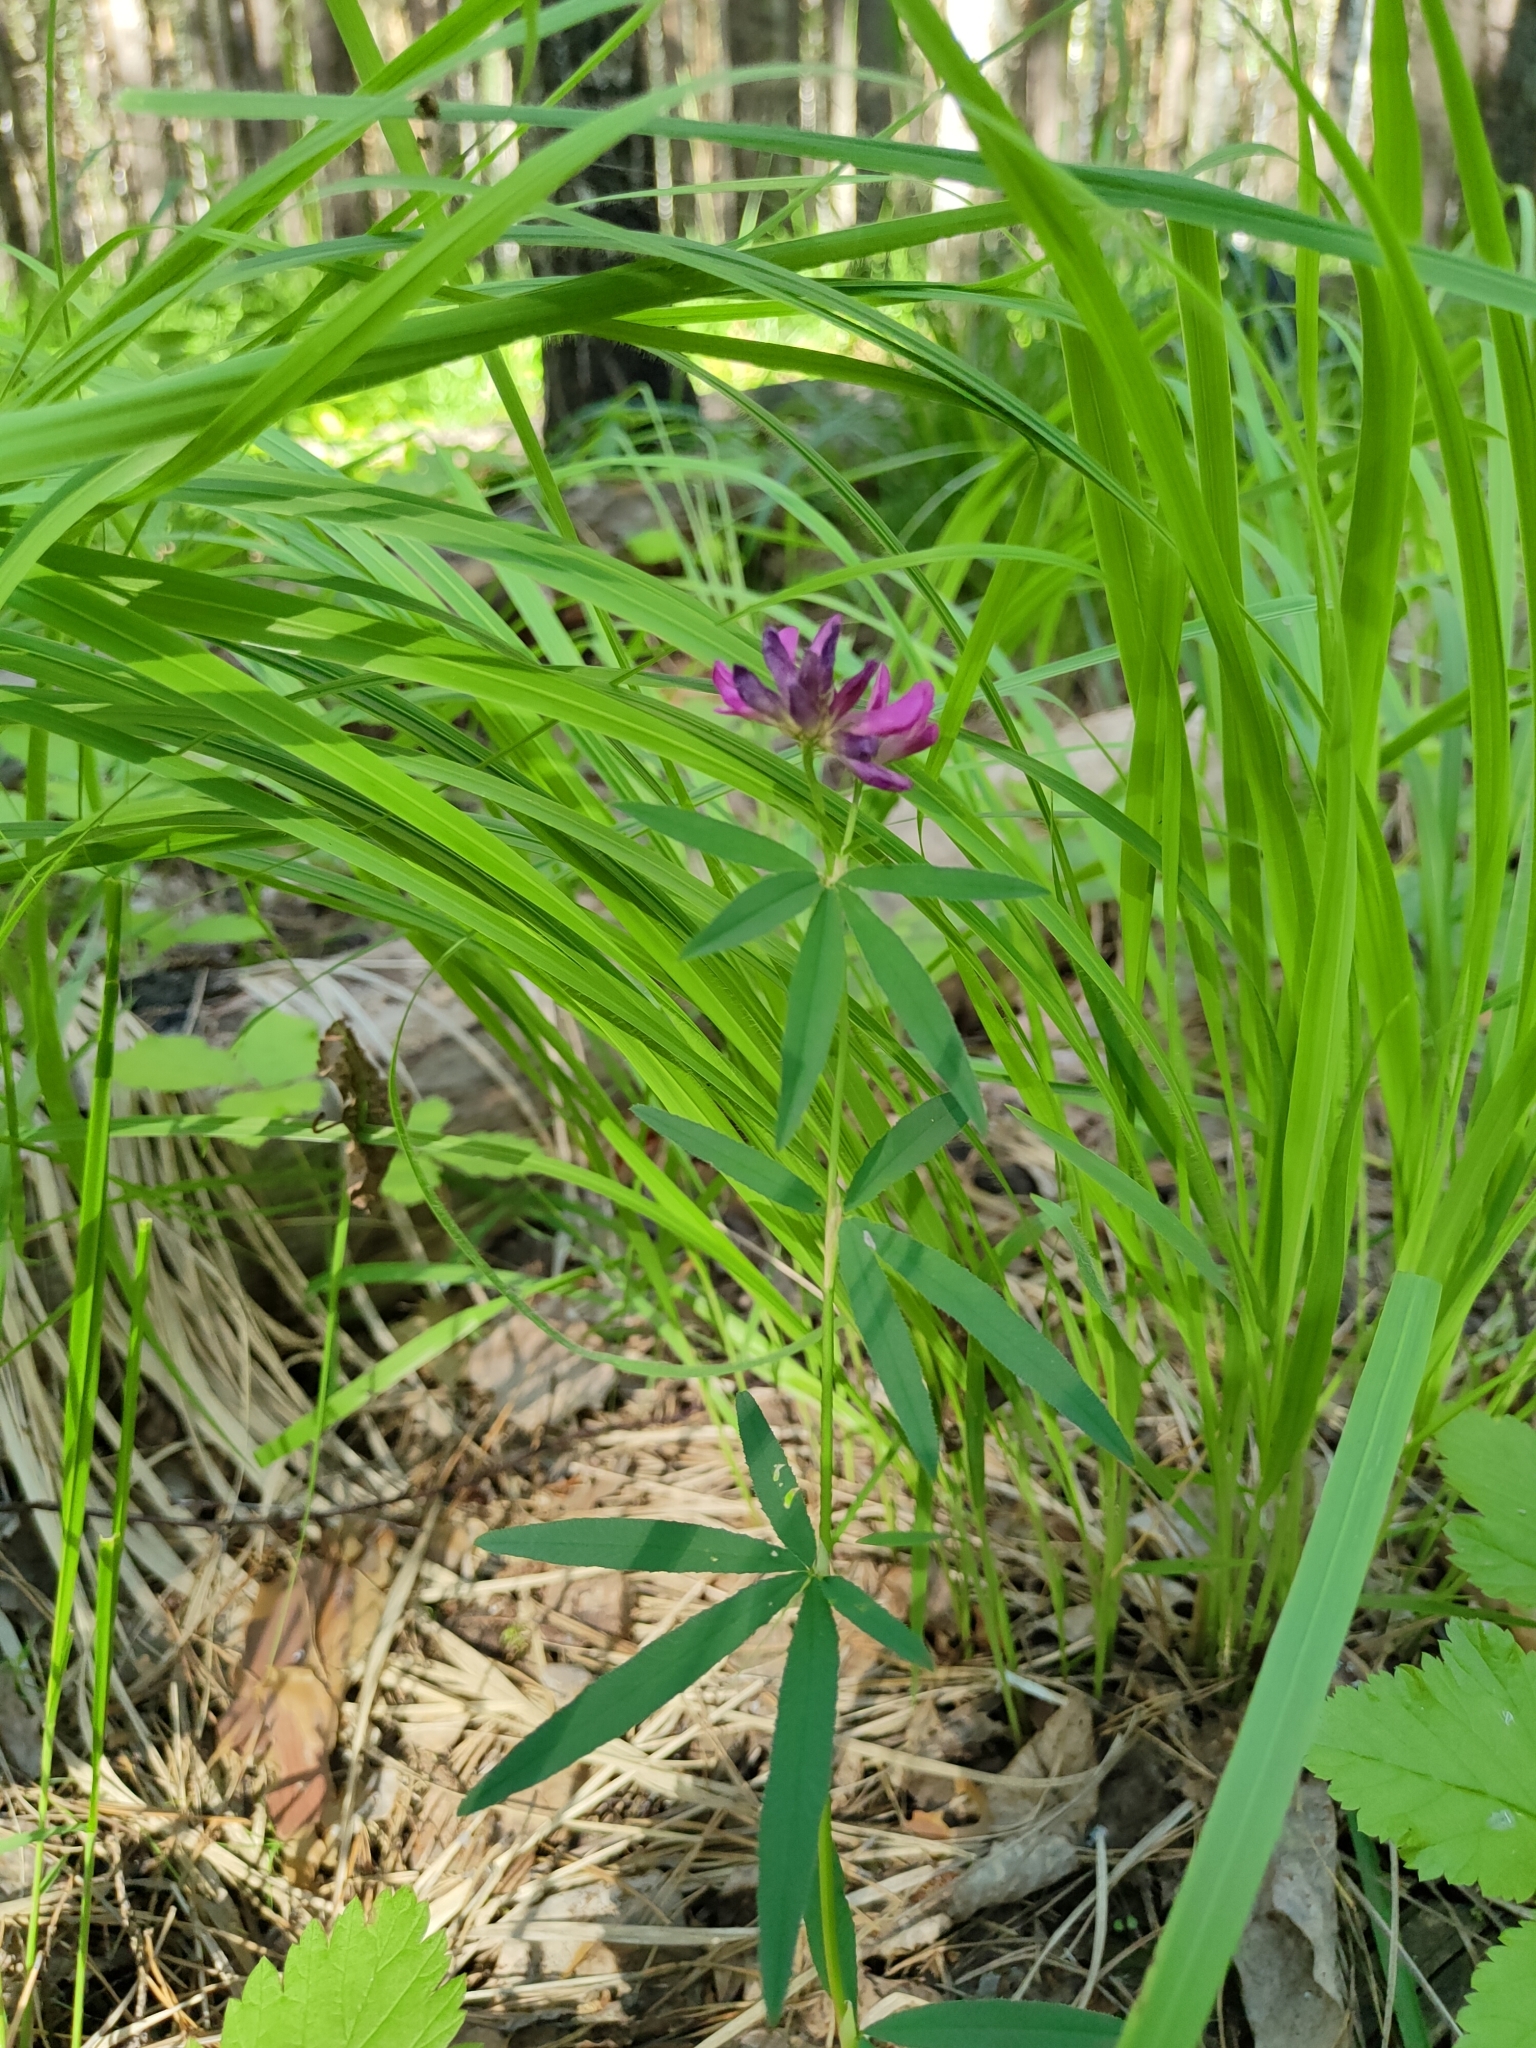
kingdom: Plantae
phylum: Tracheophyta
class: Magnoliopsida
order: Fabales
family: Fabaceae
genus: Trifolium
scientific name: Trifolium lupinaster
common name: Lupine clover
